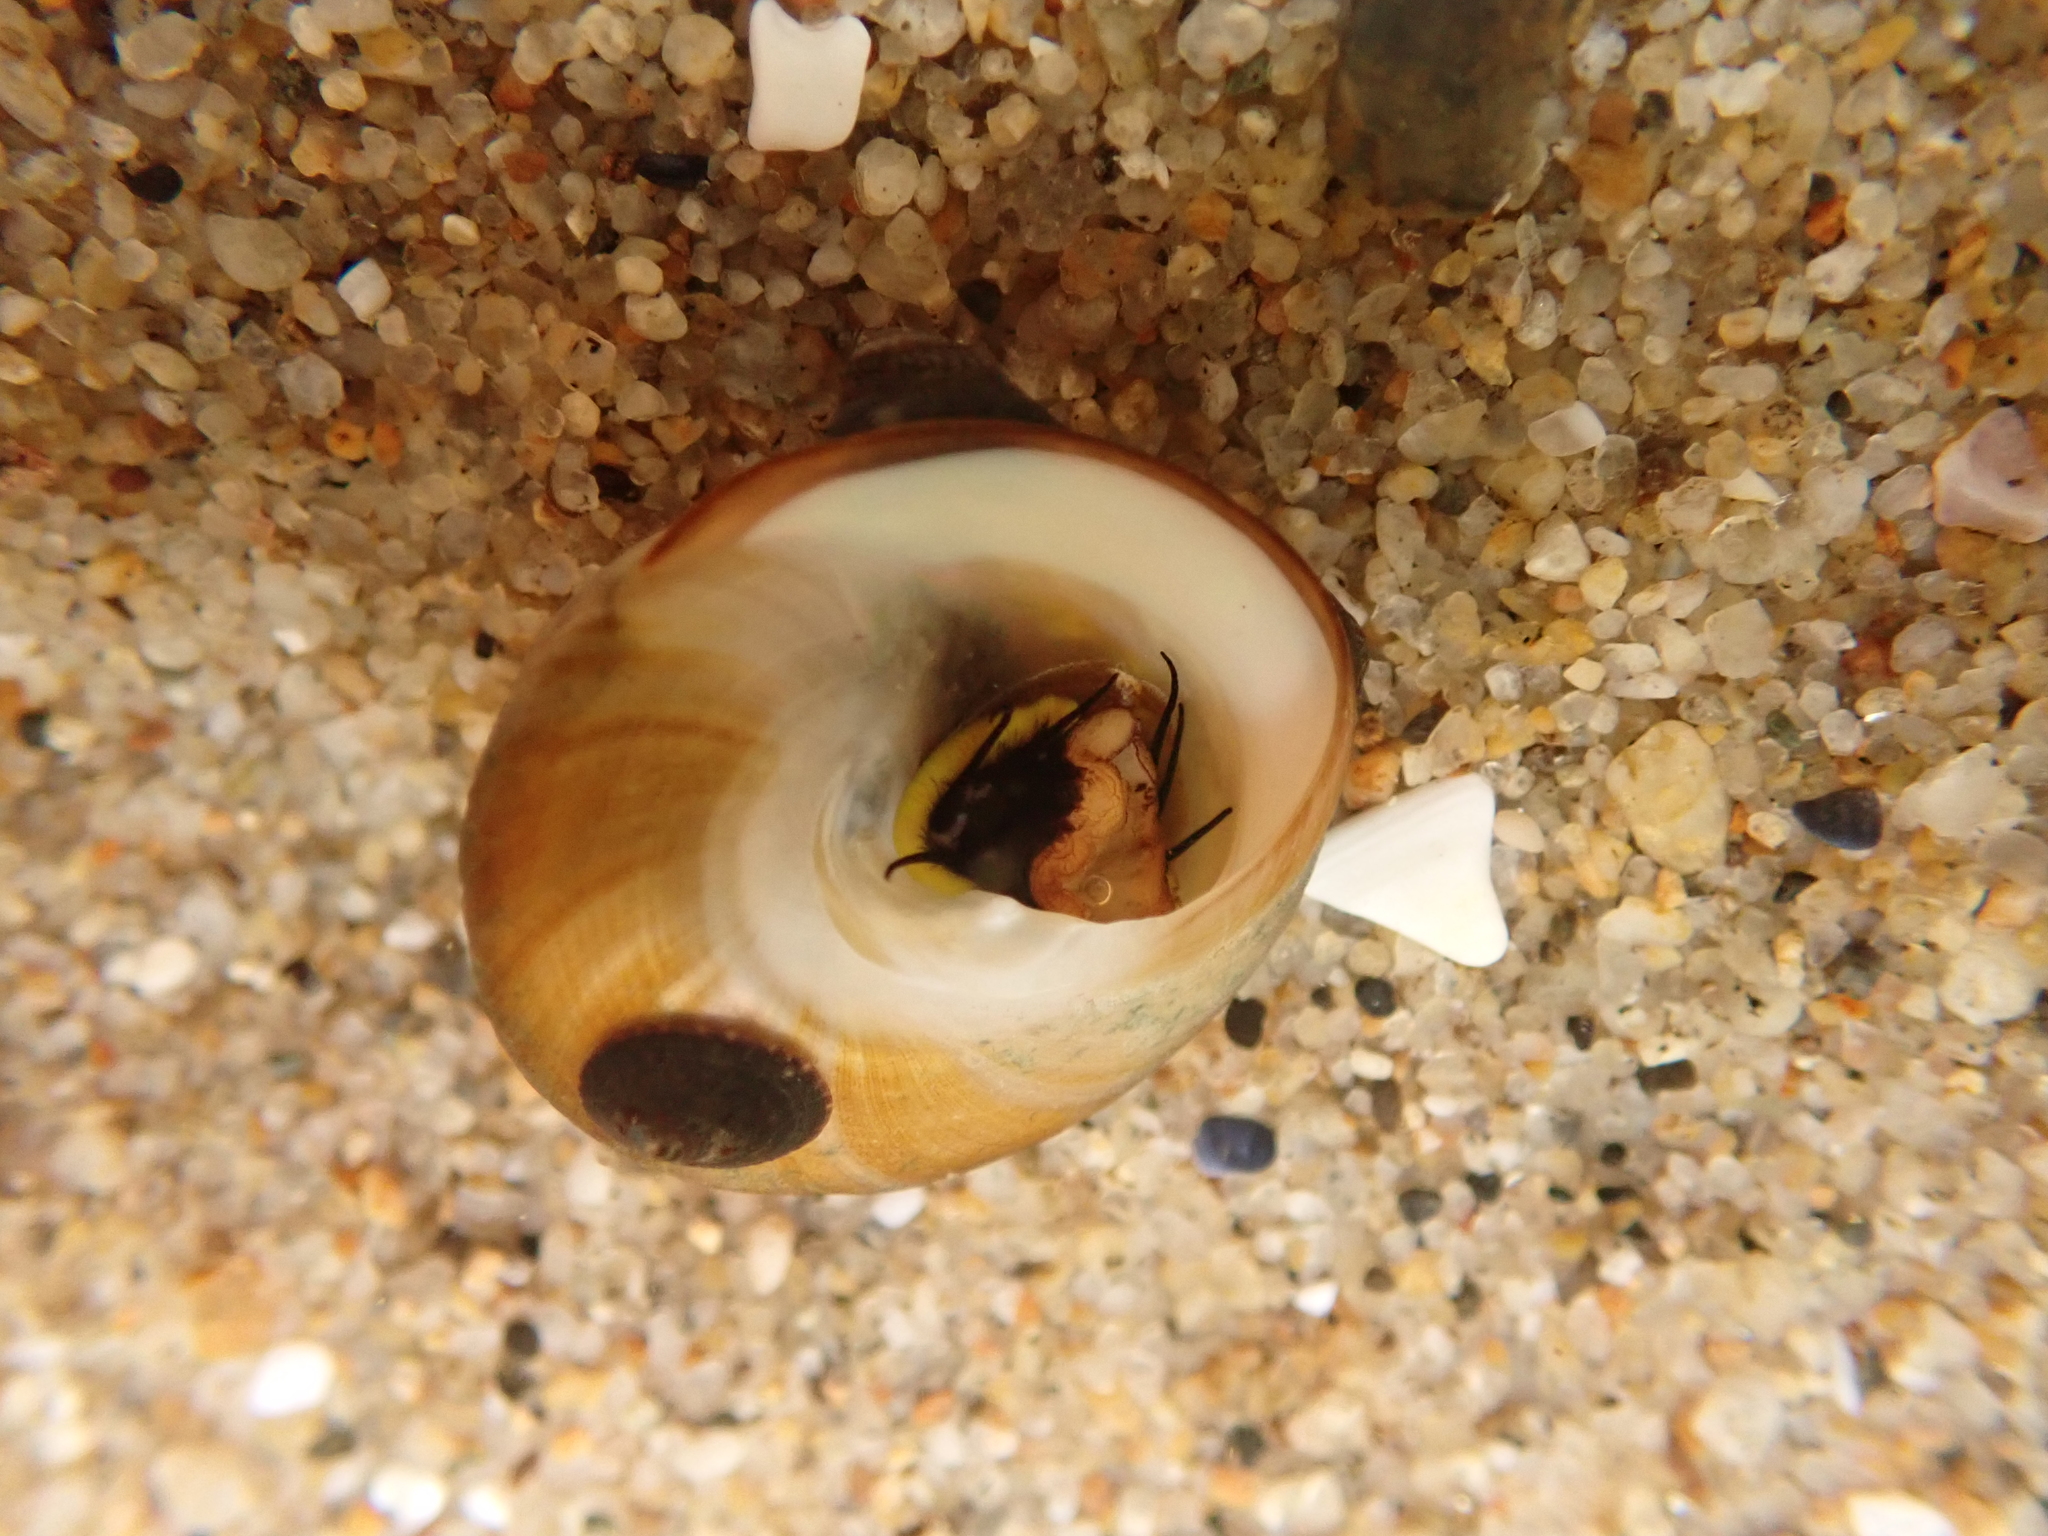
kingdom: Animalia
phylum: Mollusca
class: Gastropoda
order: Trochida
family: Tegulidae
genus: Tegula
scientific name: Tegula brunnea
